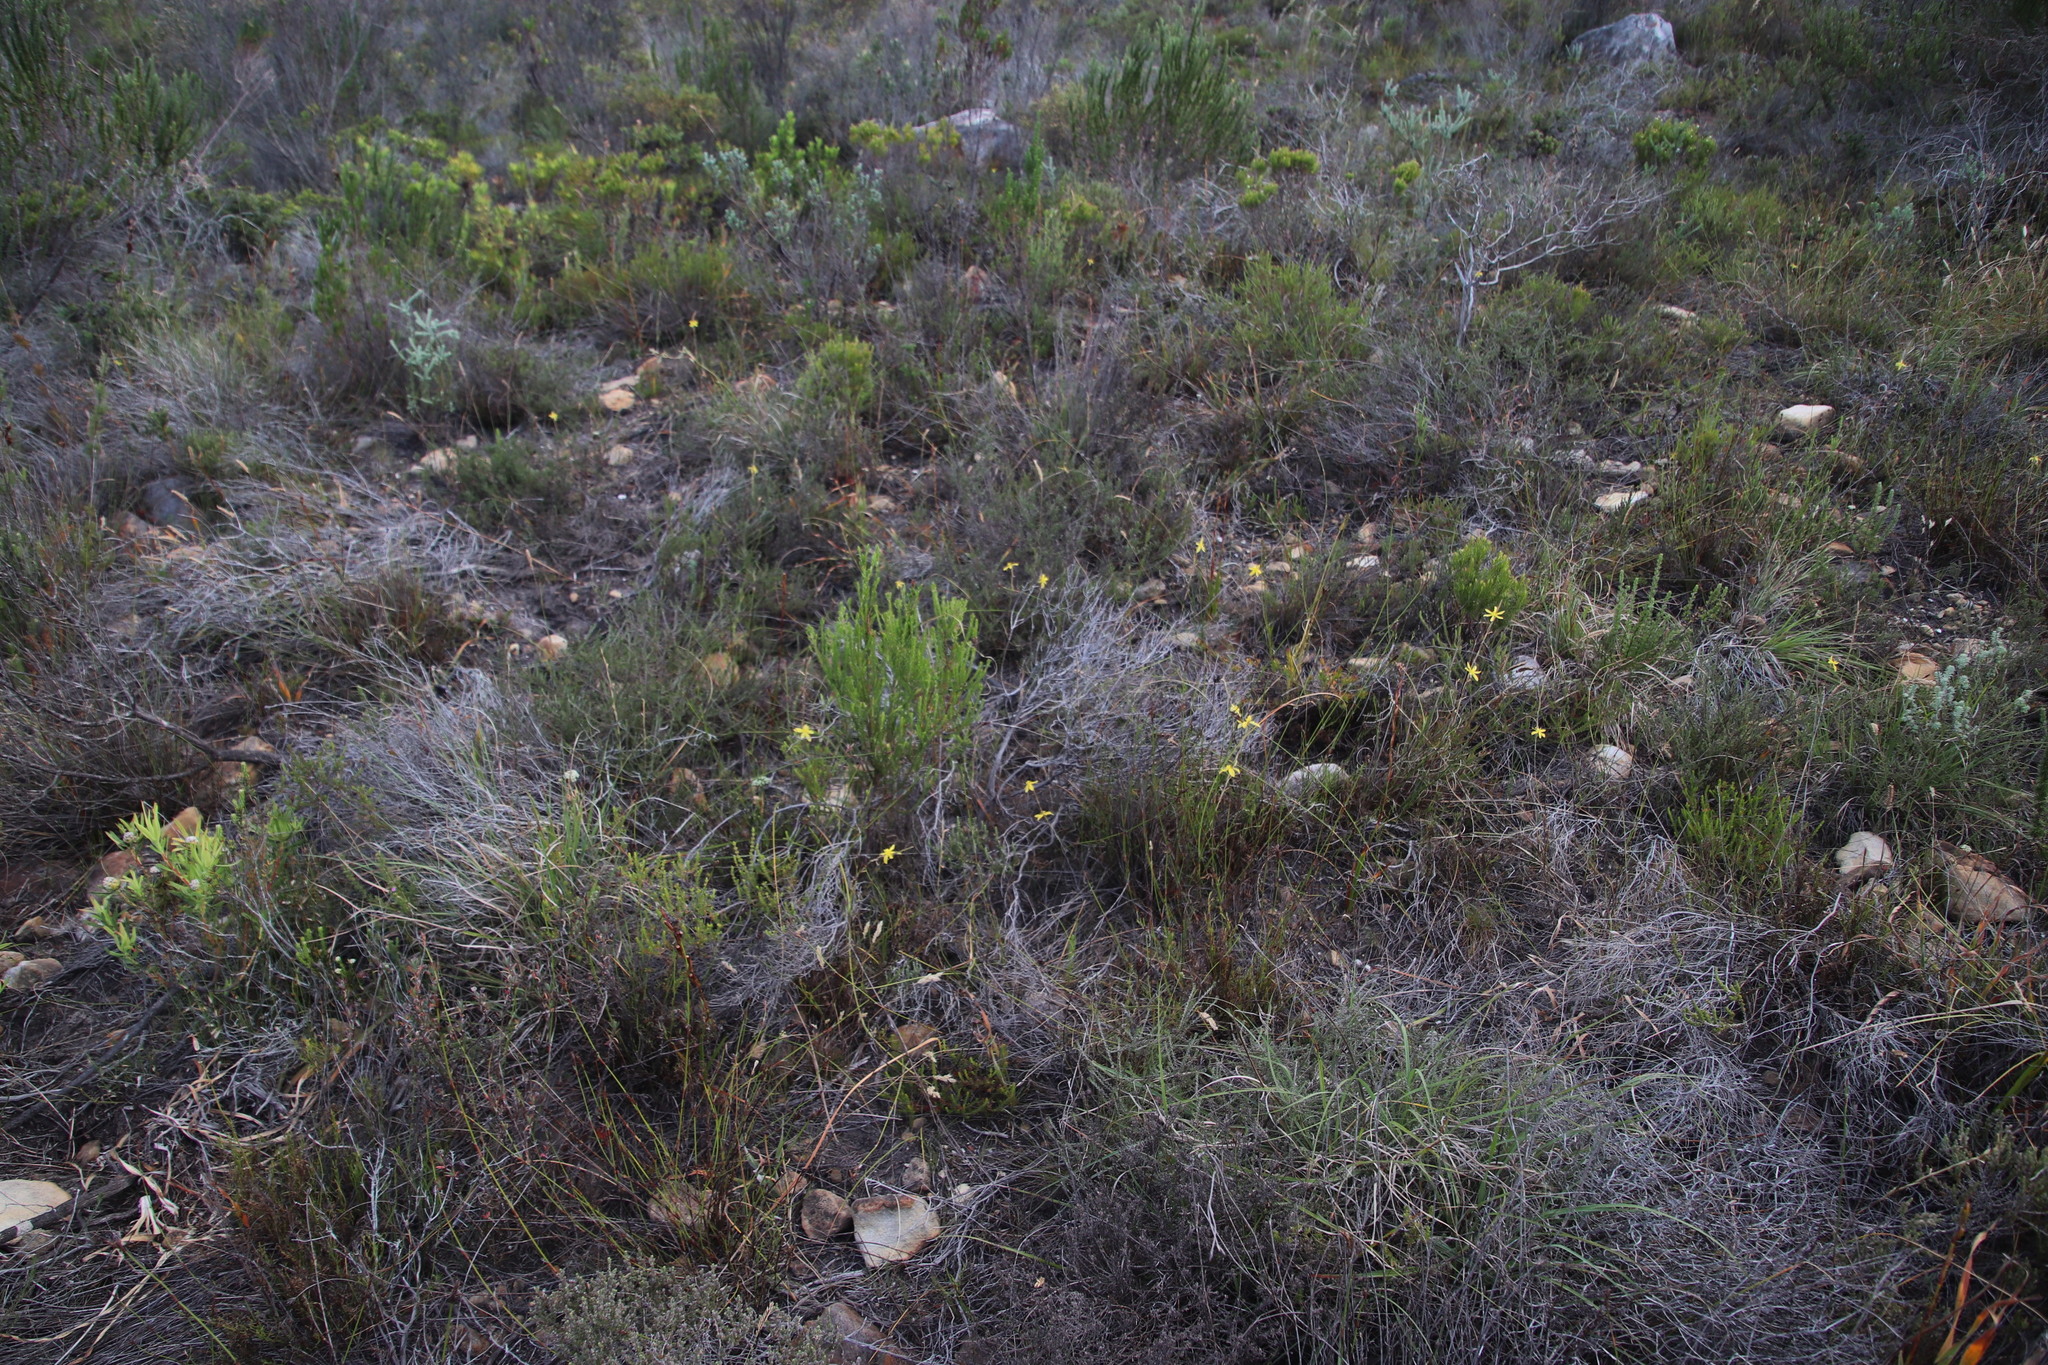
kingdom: Plantae
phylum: Tracheophyta
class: Liliopsida
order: Asparagales
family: Iridaceae
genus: Moraea
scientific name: Moraea virgata
